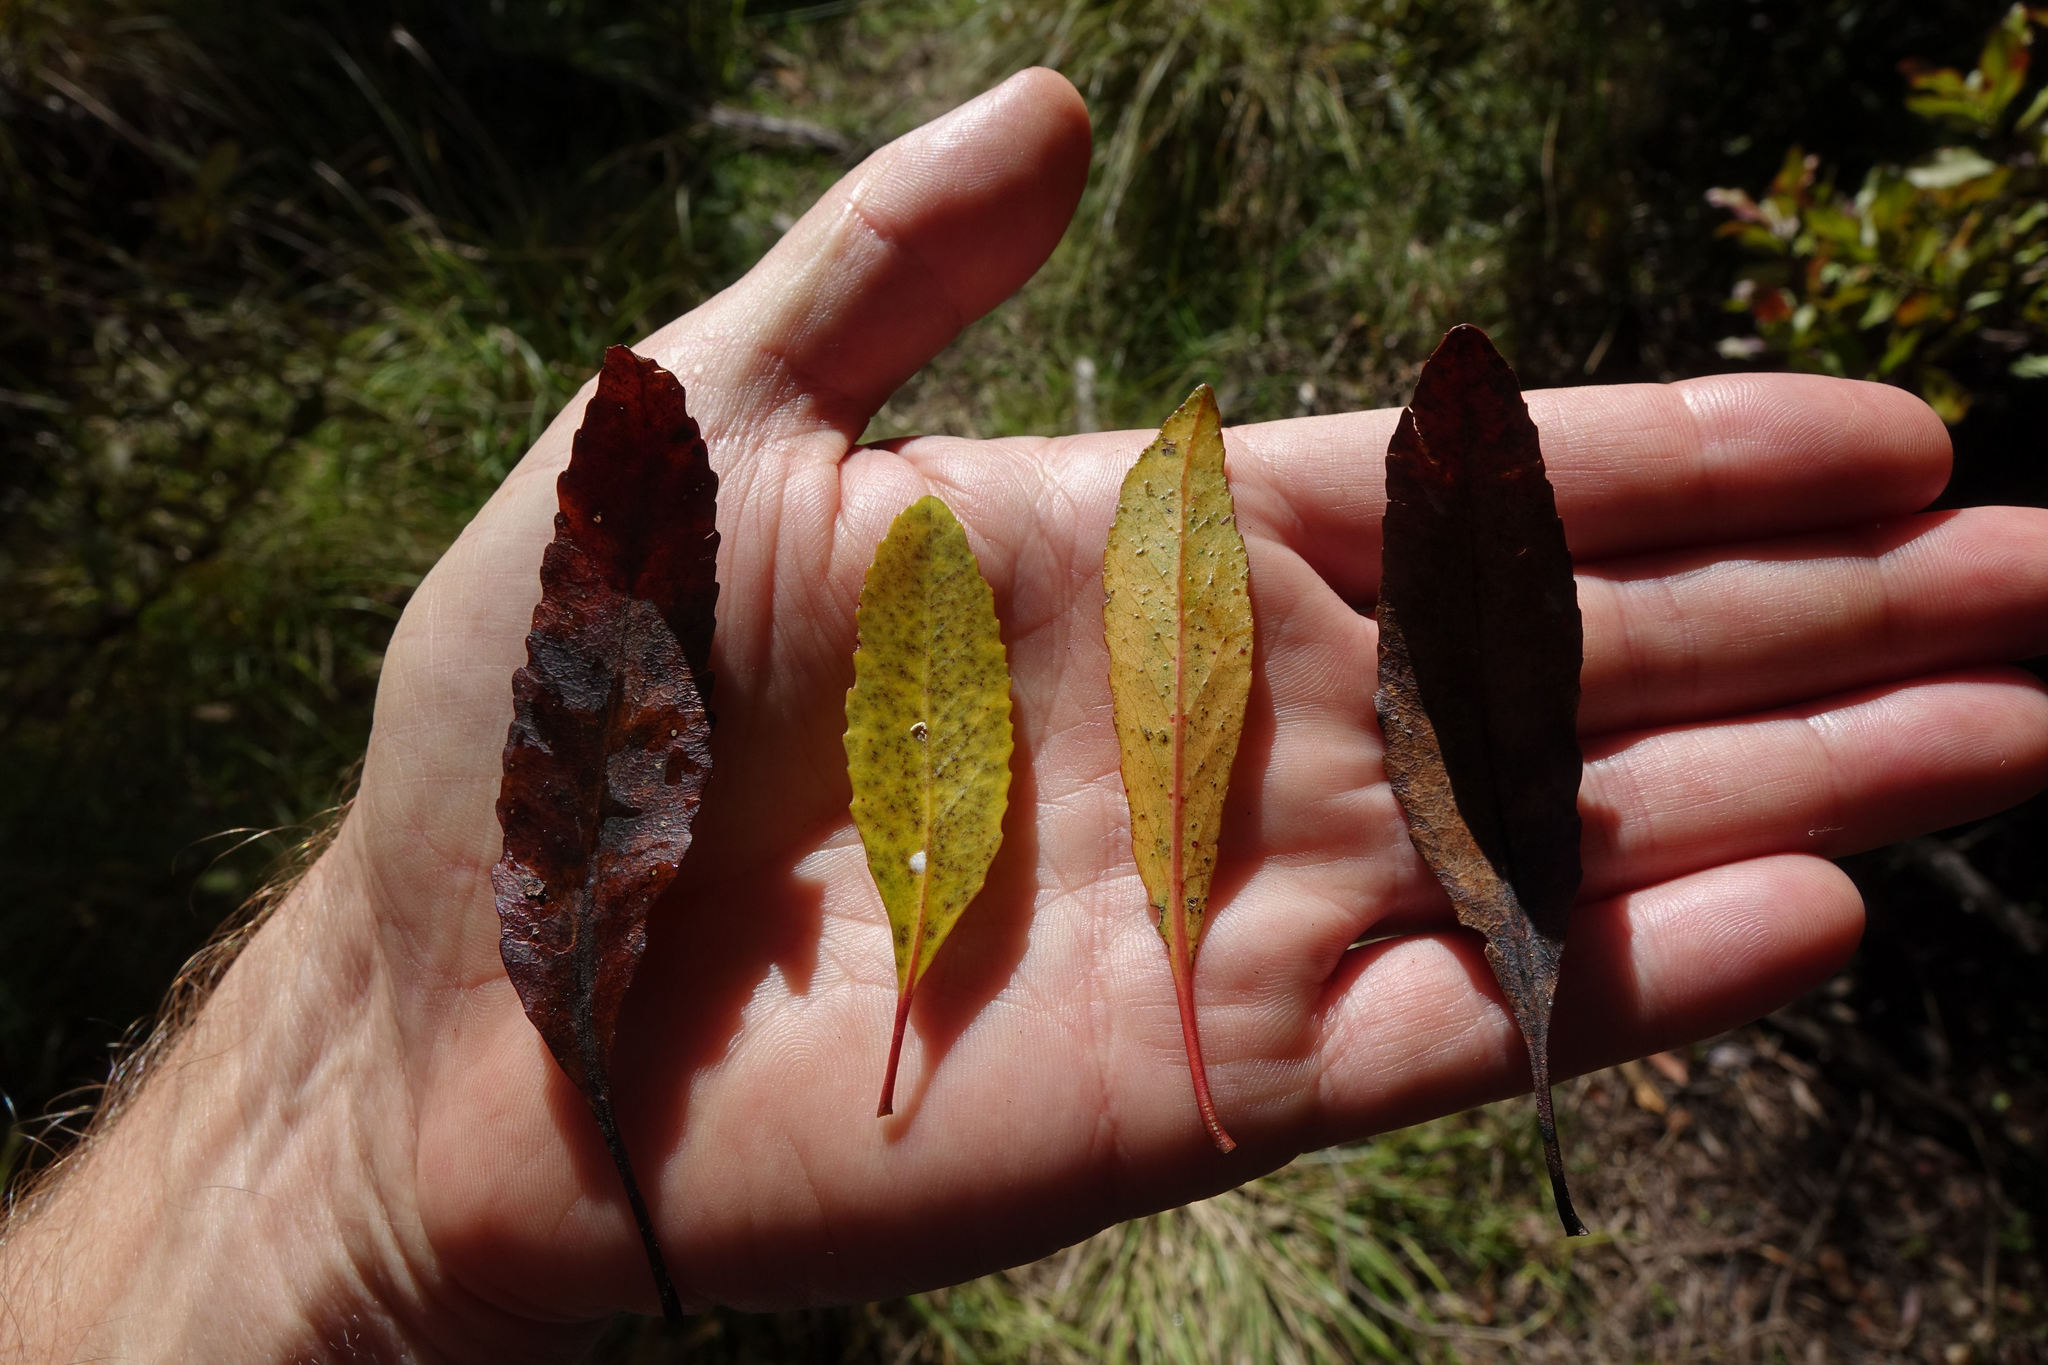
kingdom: Plantae
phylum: Tracheophyta
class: Magnoliopsida
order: Oxalidales
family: Elaeocarpaceae
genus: Elaeocarpus
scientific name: Elaeocarpus hookerianus
